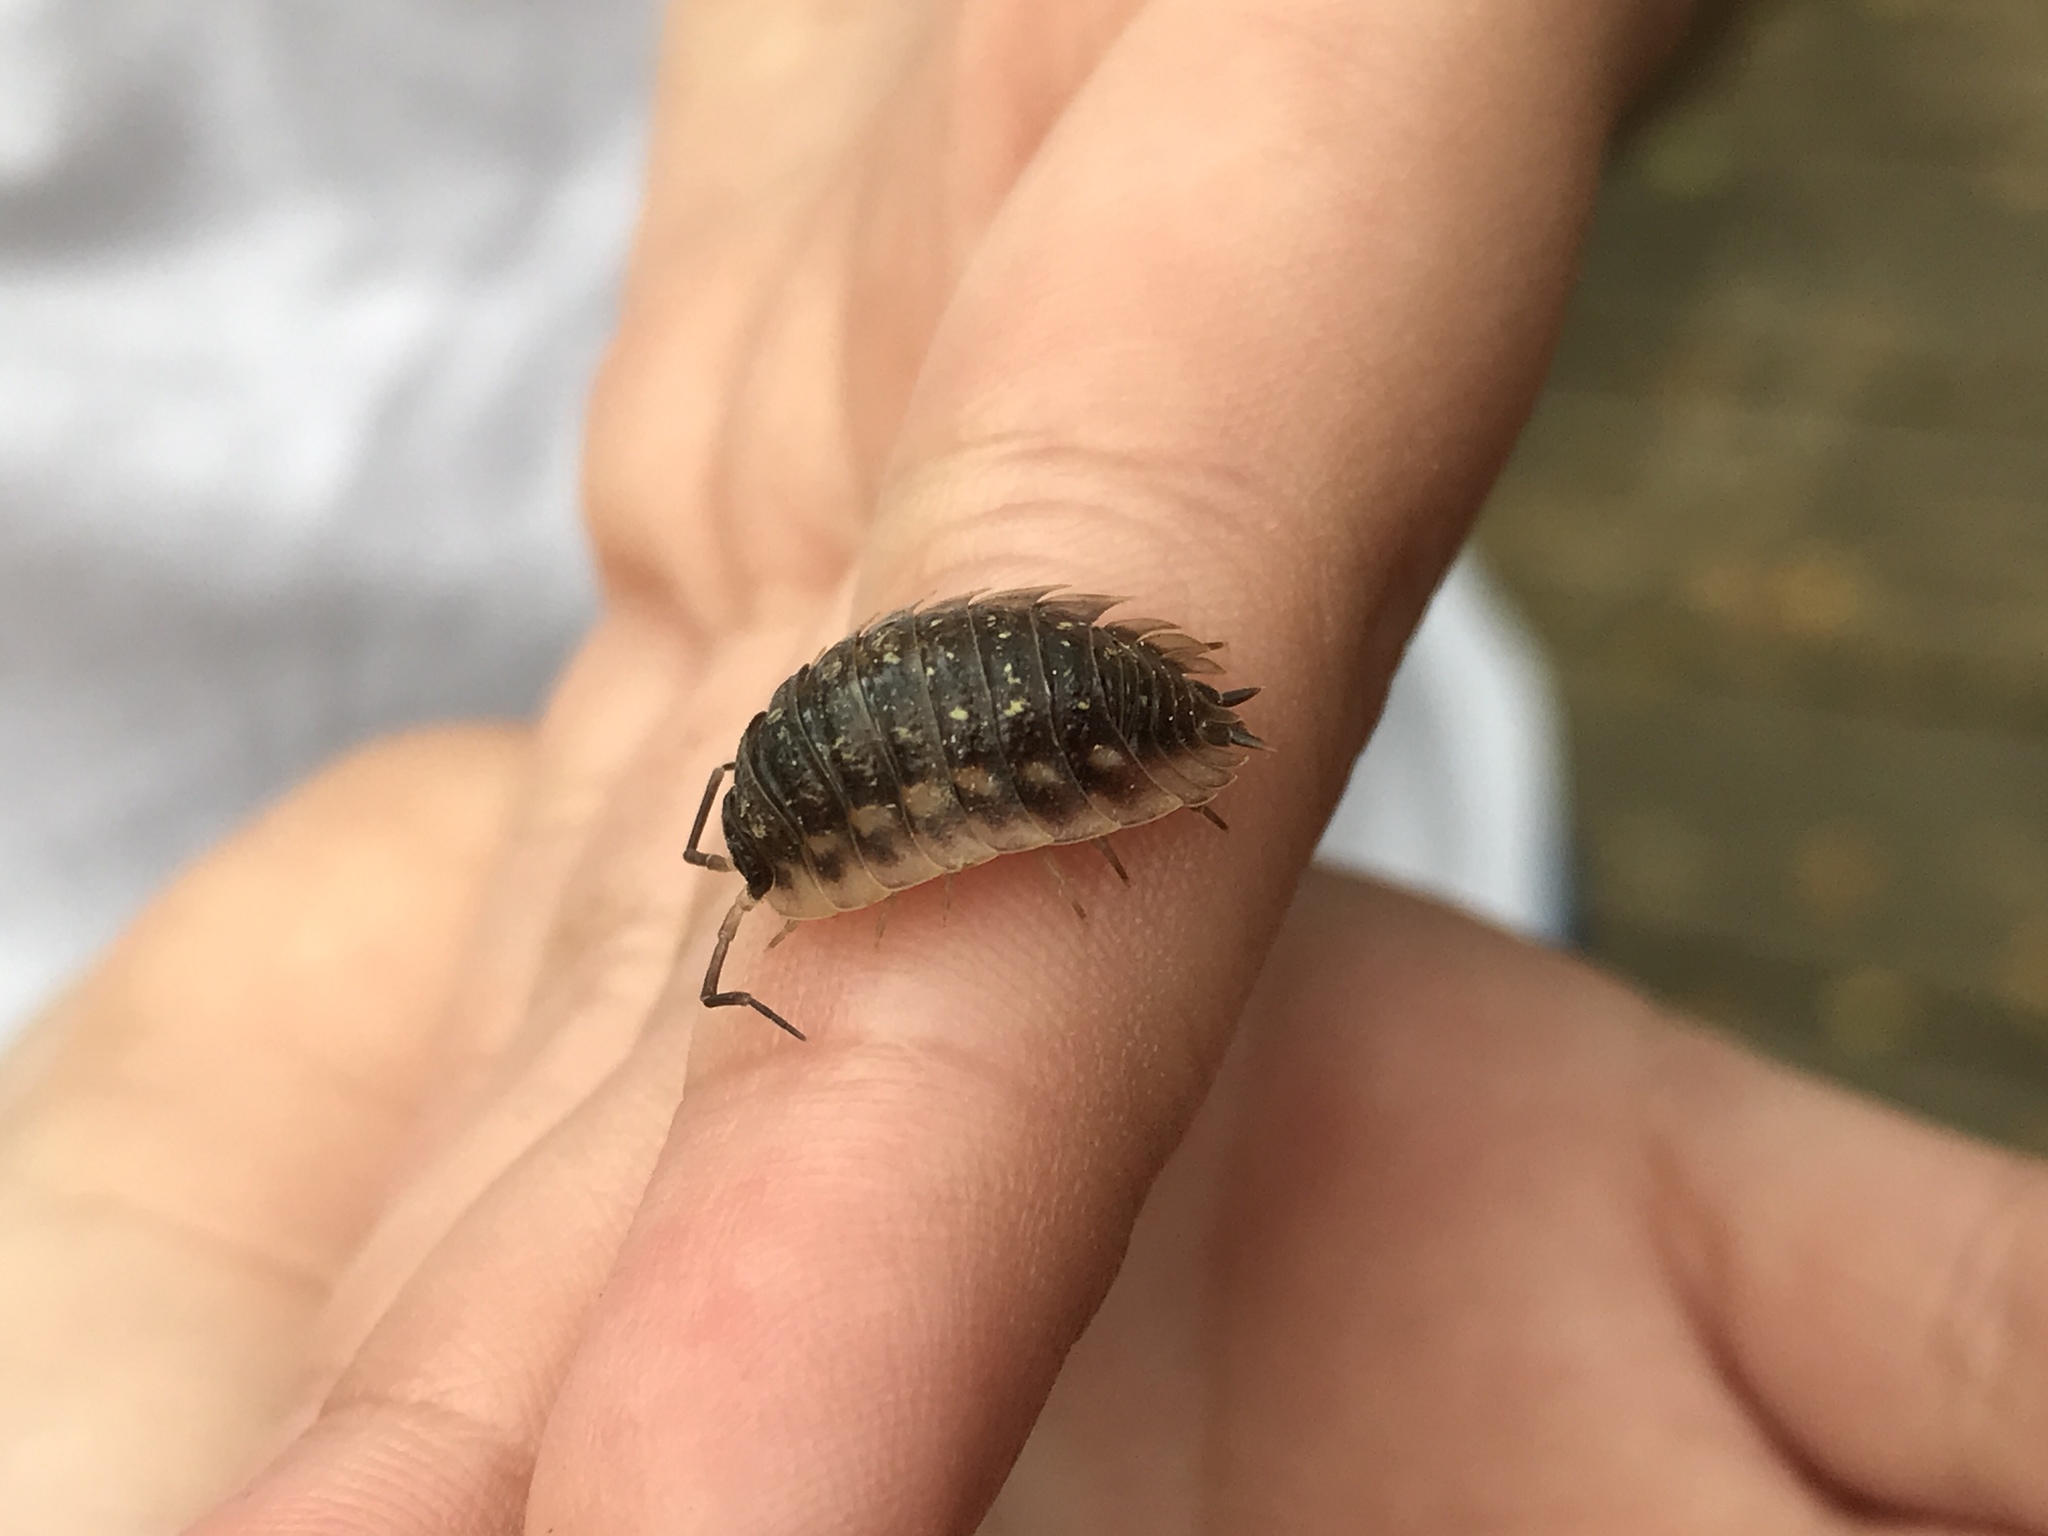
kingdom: Animalia
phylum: Arthropoda
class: Malacostraca
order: Isopoda
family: Oniscidae
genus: Oniscus
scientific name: Oniscus asellus
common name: Common shiny woodlouse
